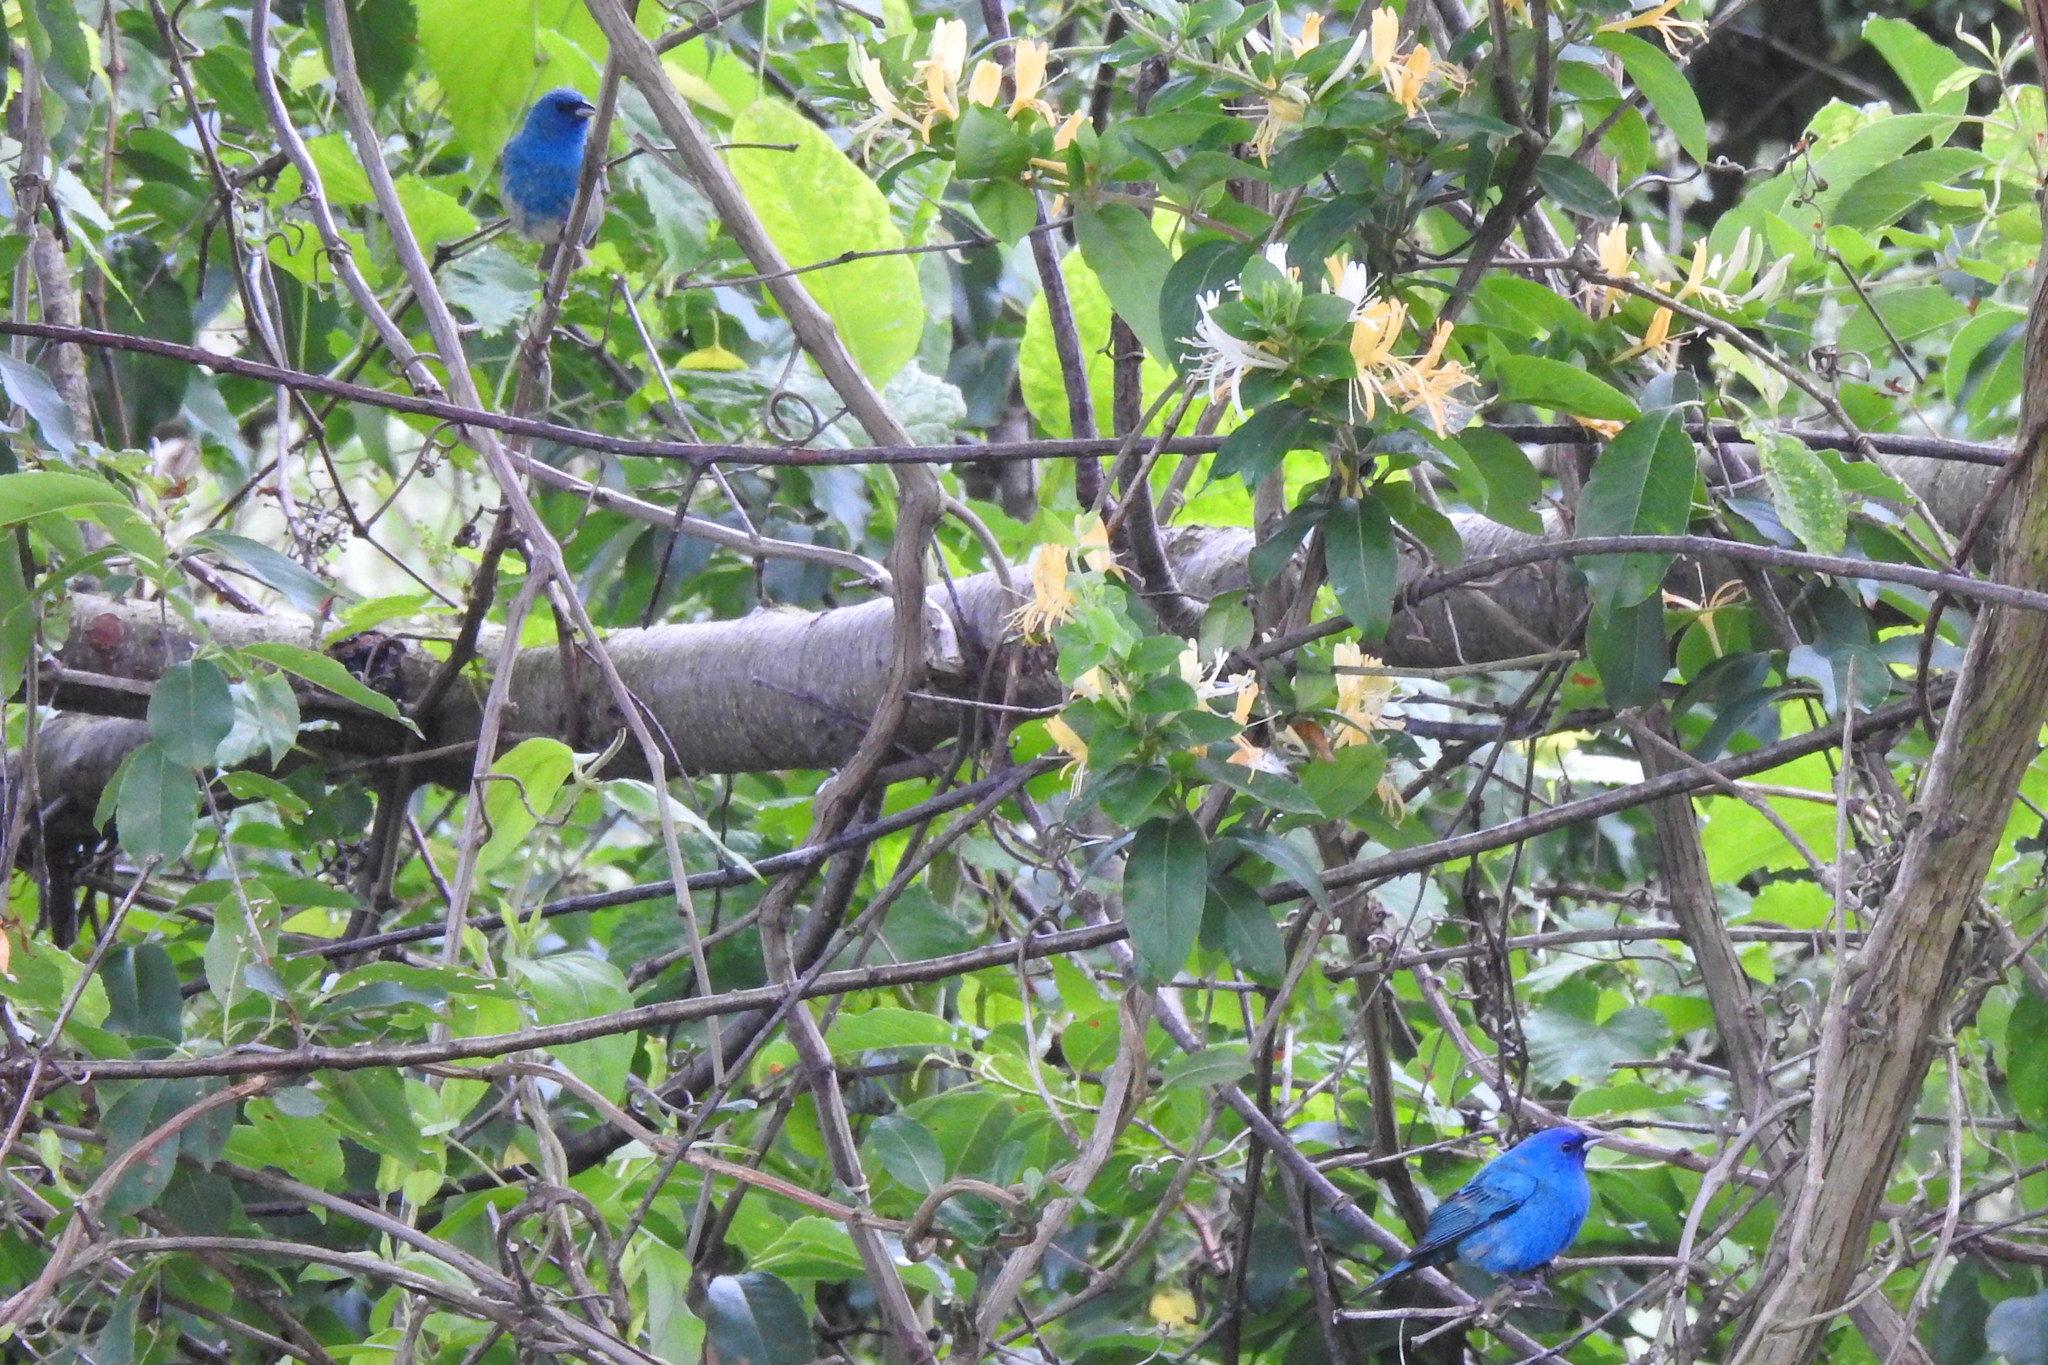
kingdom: Animalia
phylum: Chordata
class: Aves
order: Passeriformes
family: Cardinalidae
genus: Passerina
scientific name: Passerina cyanea
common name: Indigo bunting
